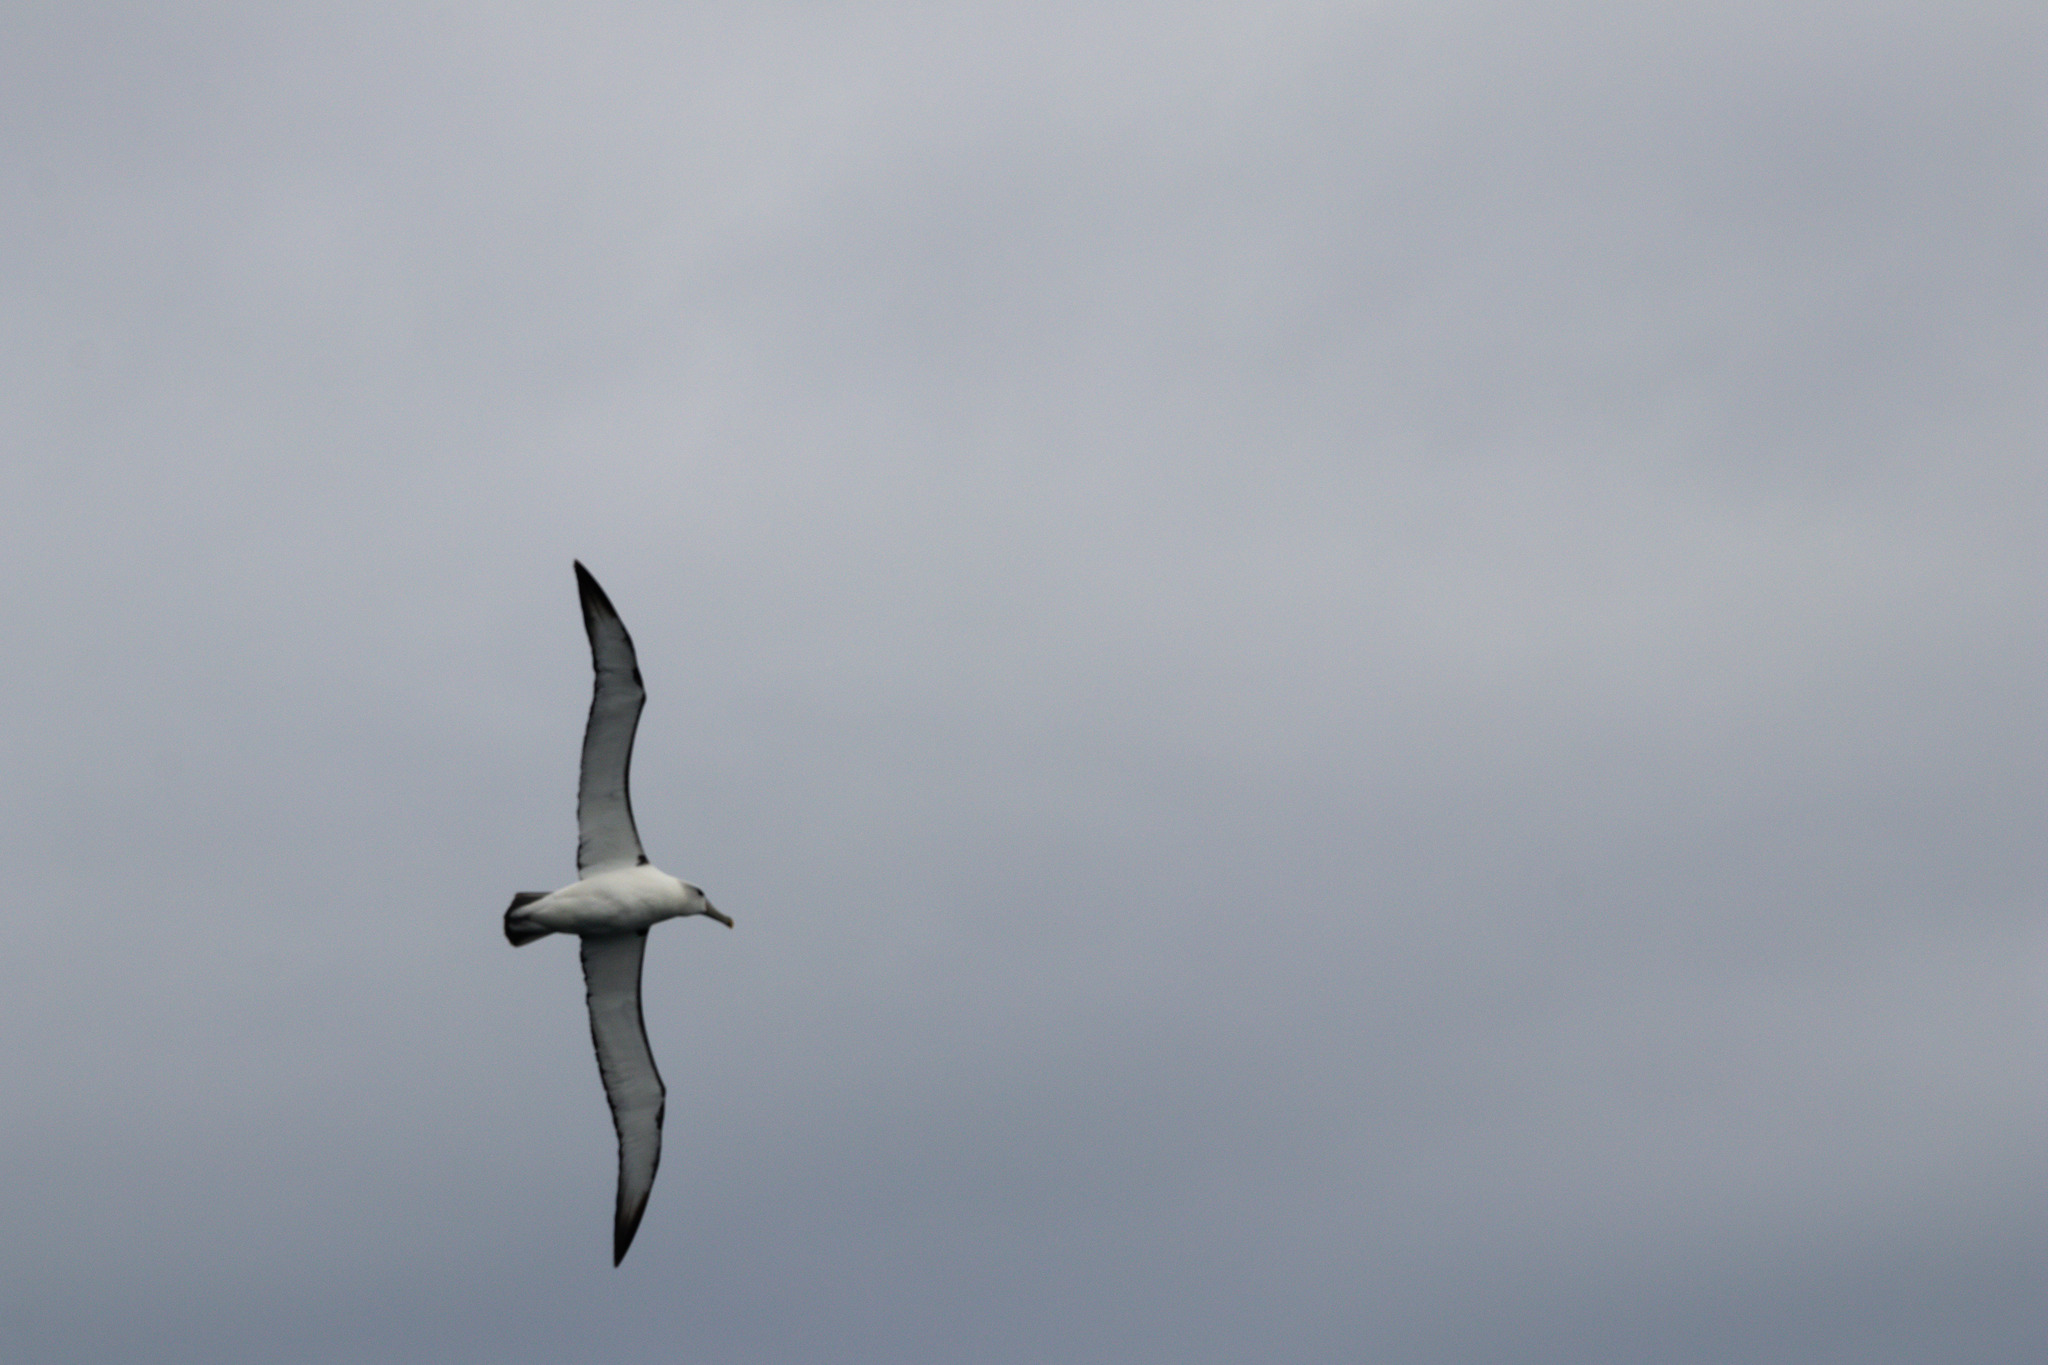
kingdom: Animalia
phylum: Chordata
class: Aves
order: Procellariiformes
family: Diomedeidae
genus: Thalassarche
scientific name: Thalassarche cauta
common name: Shy albatross
